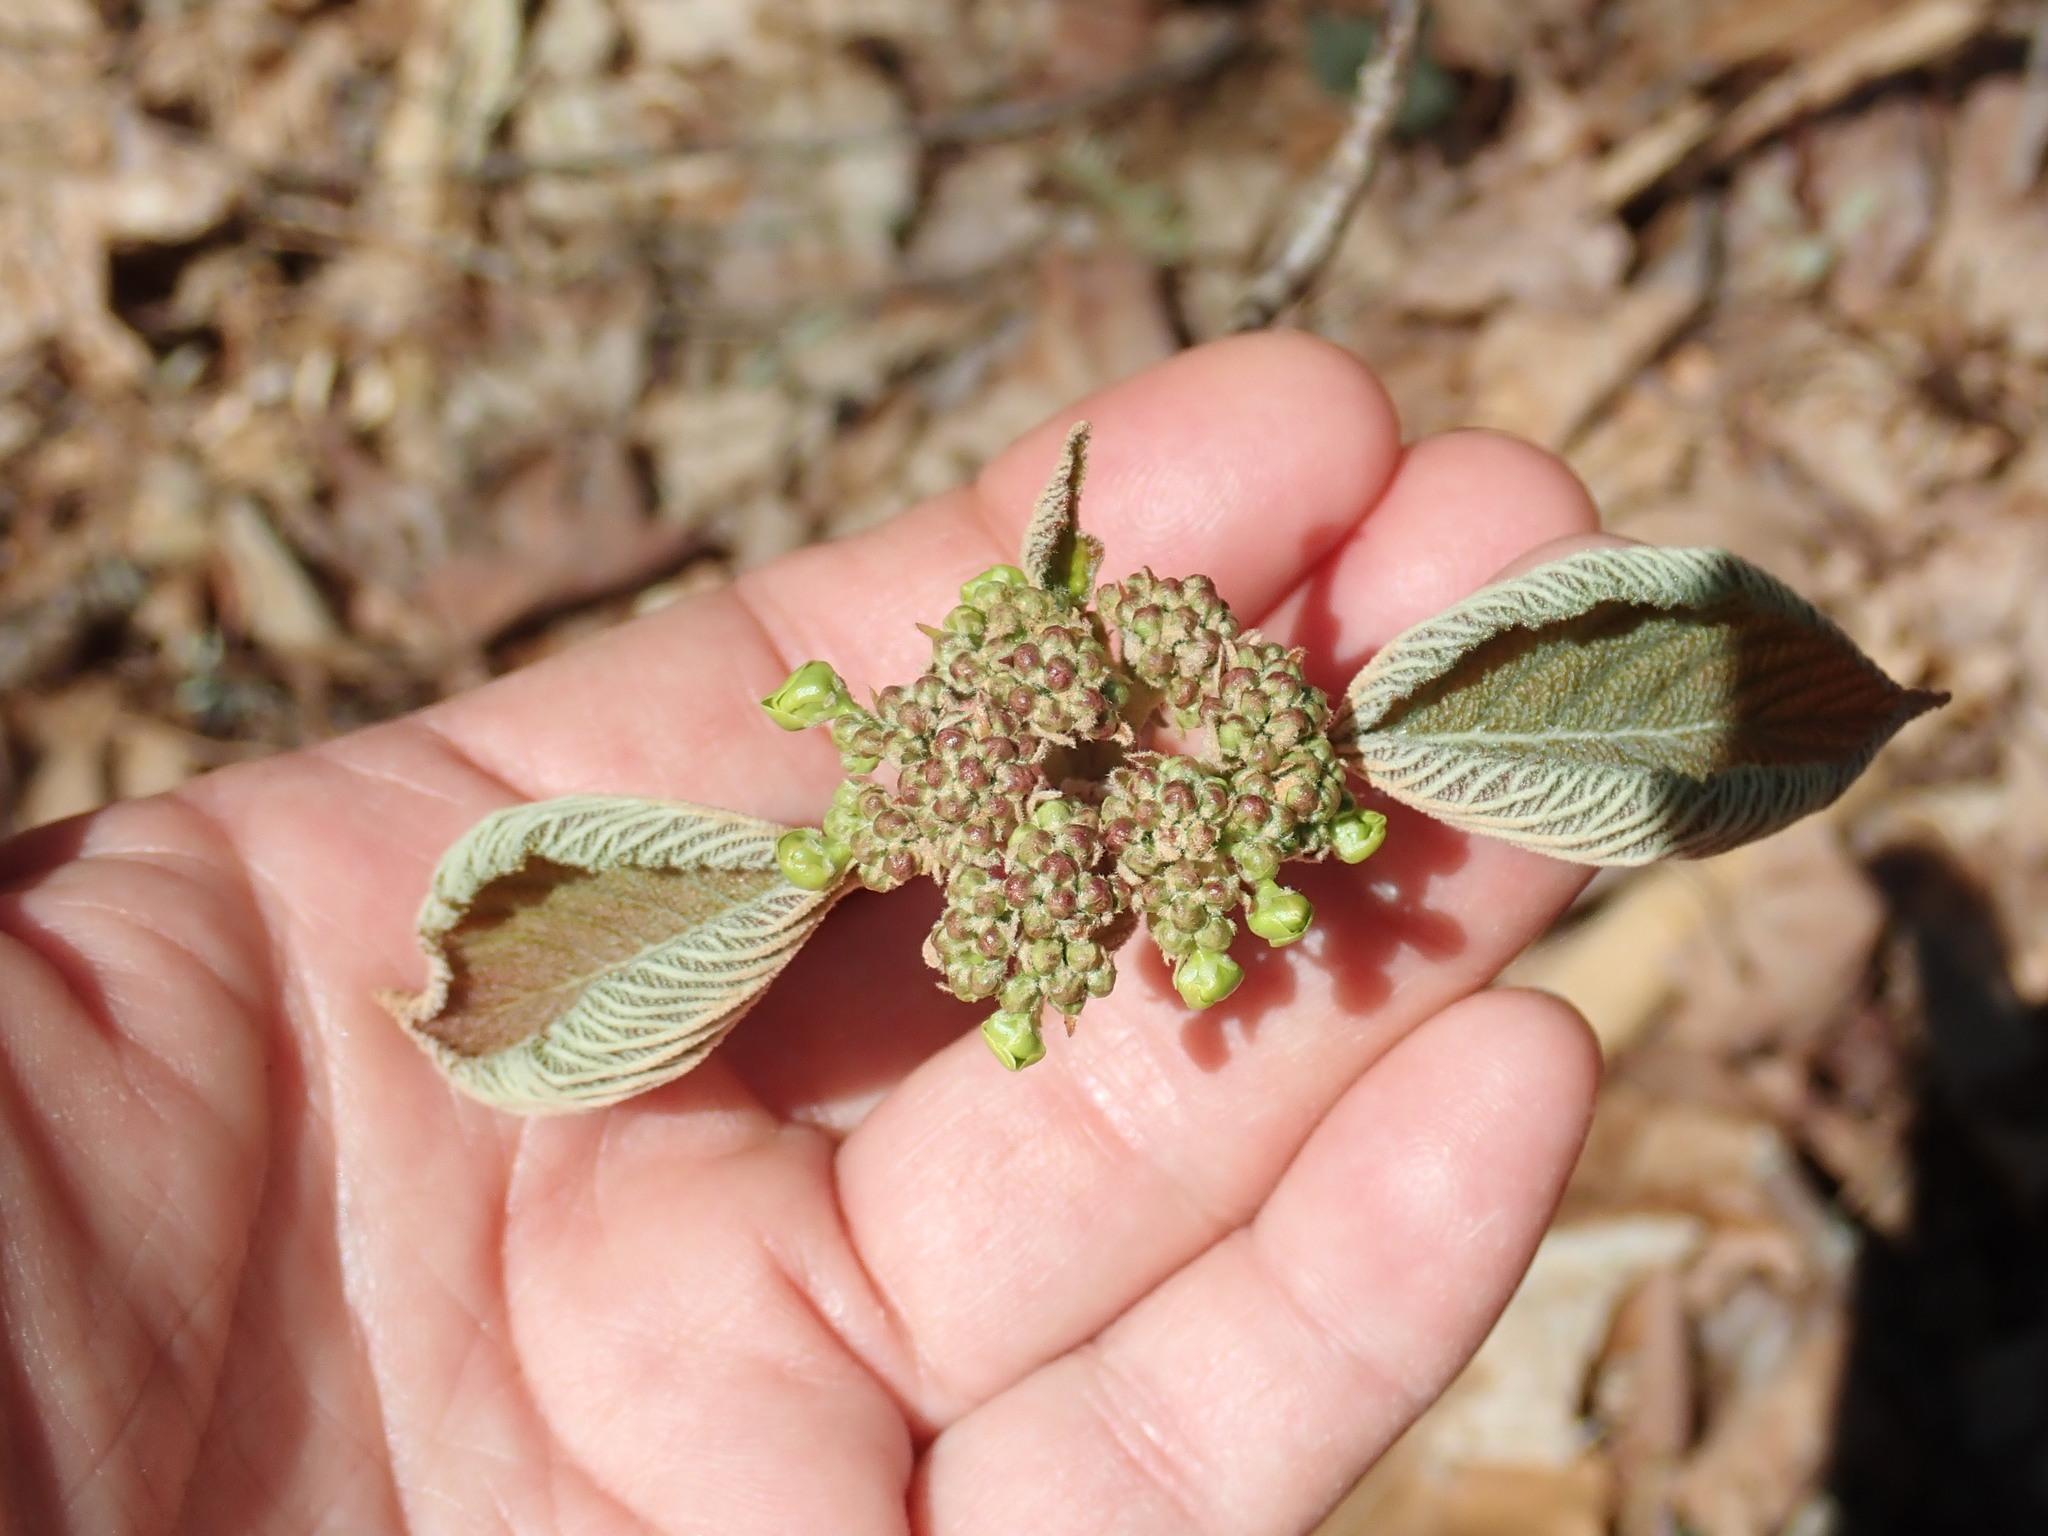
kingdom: Plantae
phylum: Tracheophyta
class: Magnoliopsida
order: Dipsacales
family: Viburnaceae
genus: Viburnum
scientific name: Viburnum lantanoides
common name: Hobblebush
